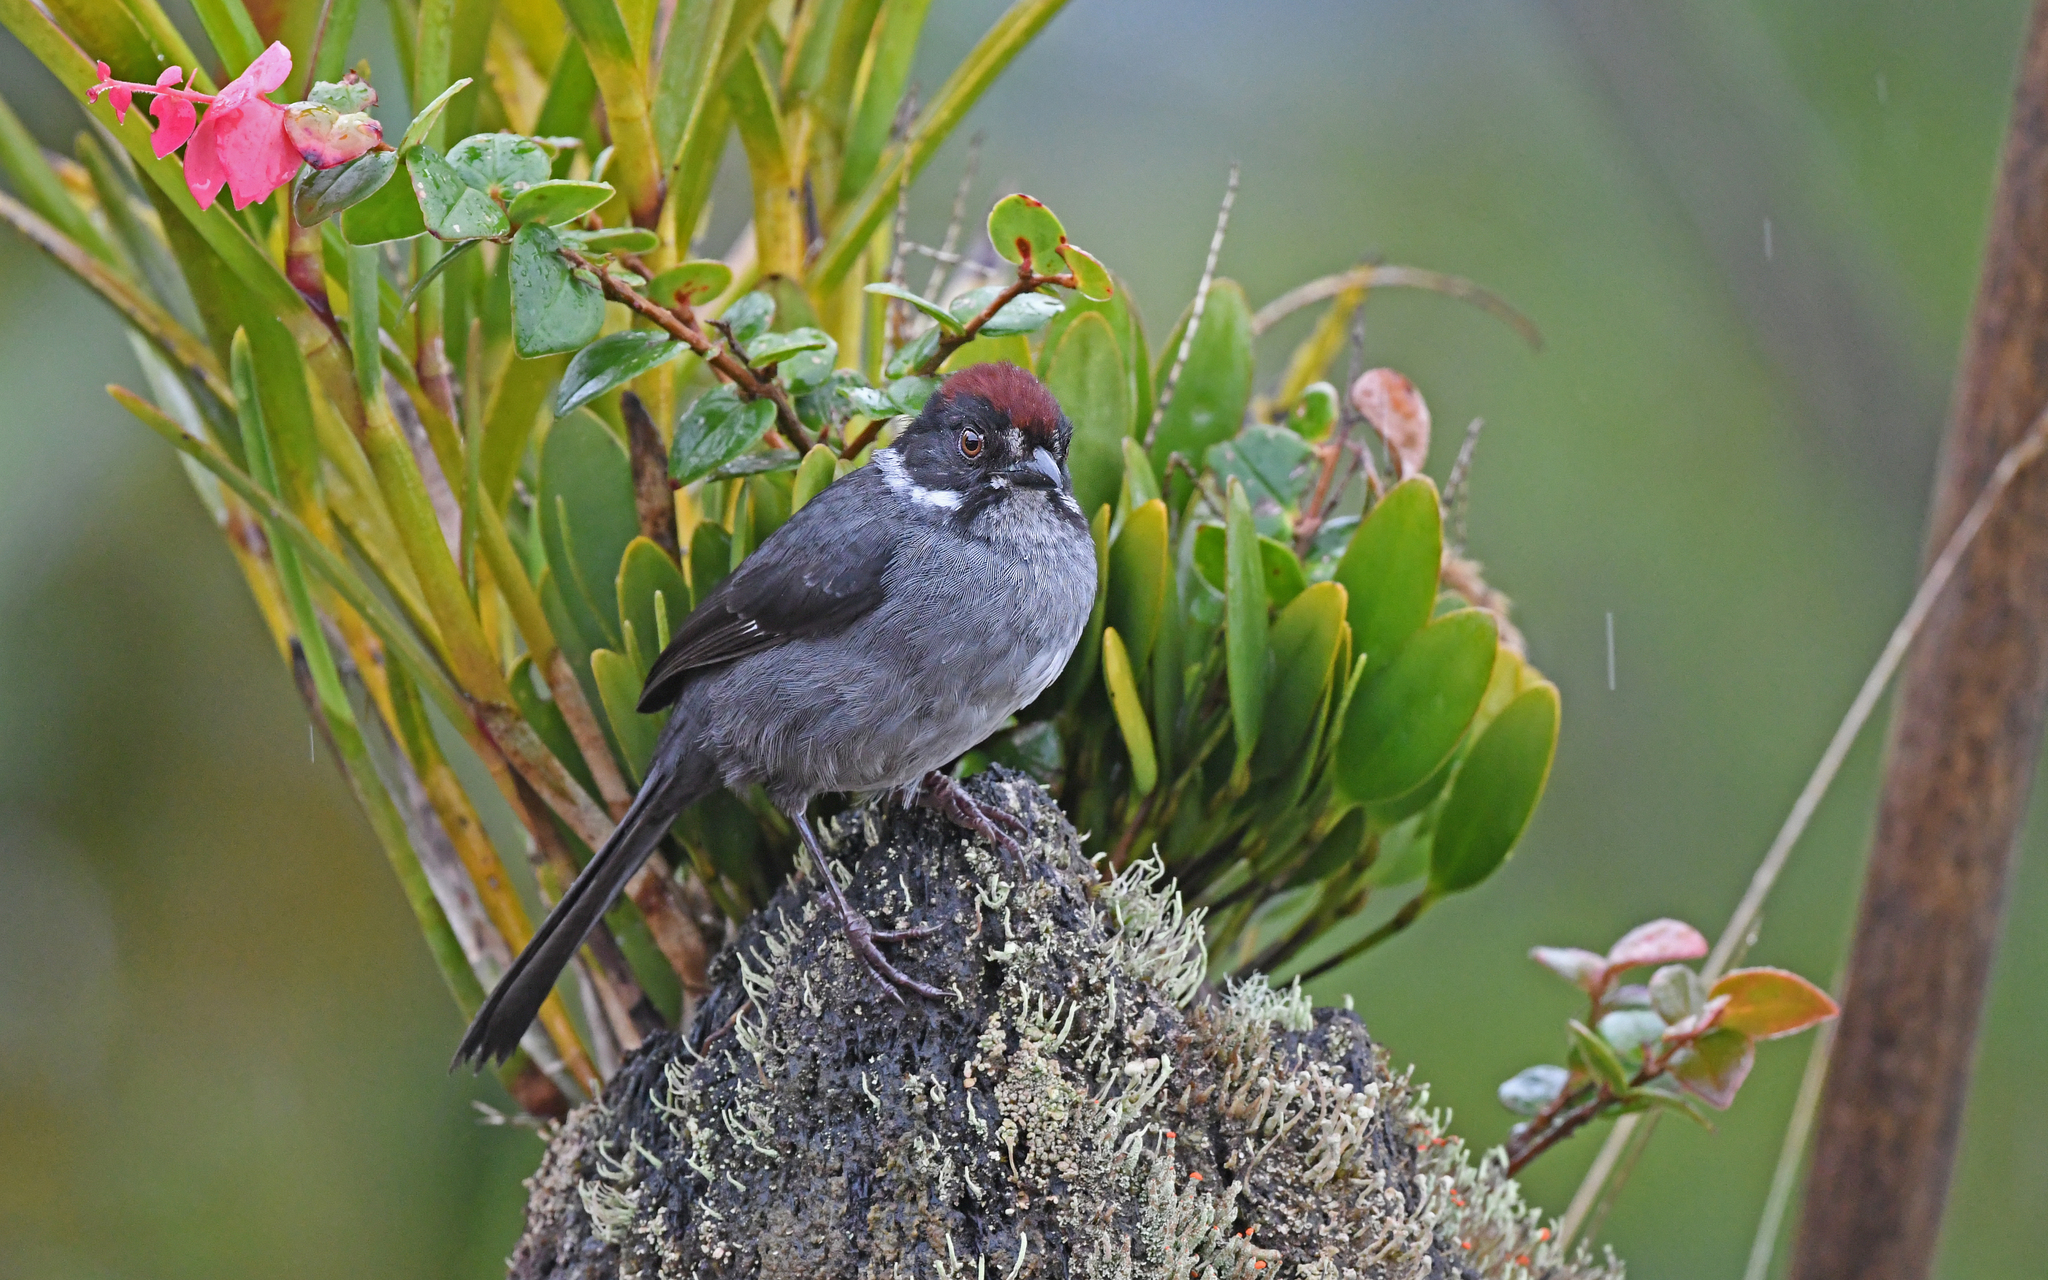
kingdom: Animalia
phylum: Chordata
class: Aves
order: Passeriformes
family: Passerellidae
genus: Atlapetes
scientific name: Atlapetes schistaceus
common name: Slaty brushfinch
